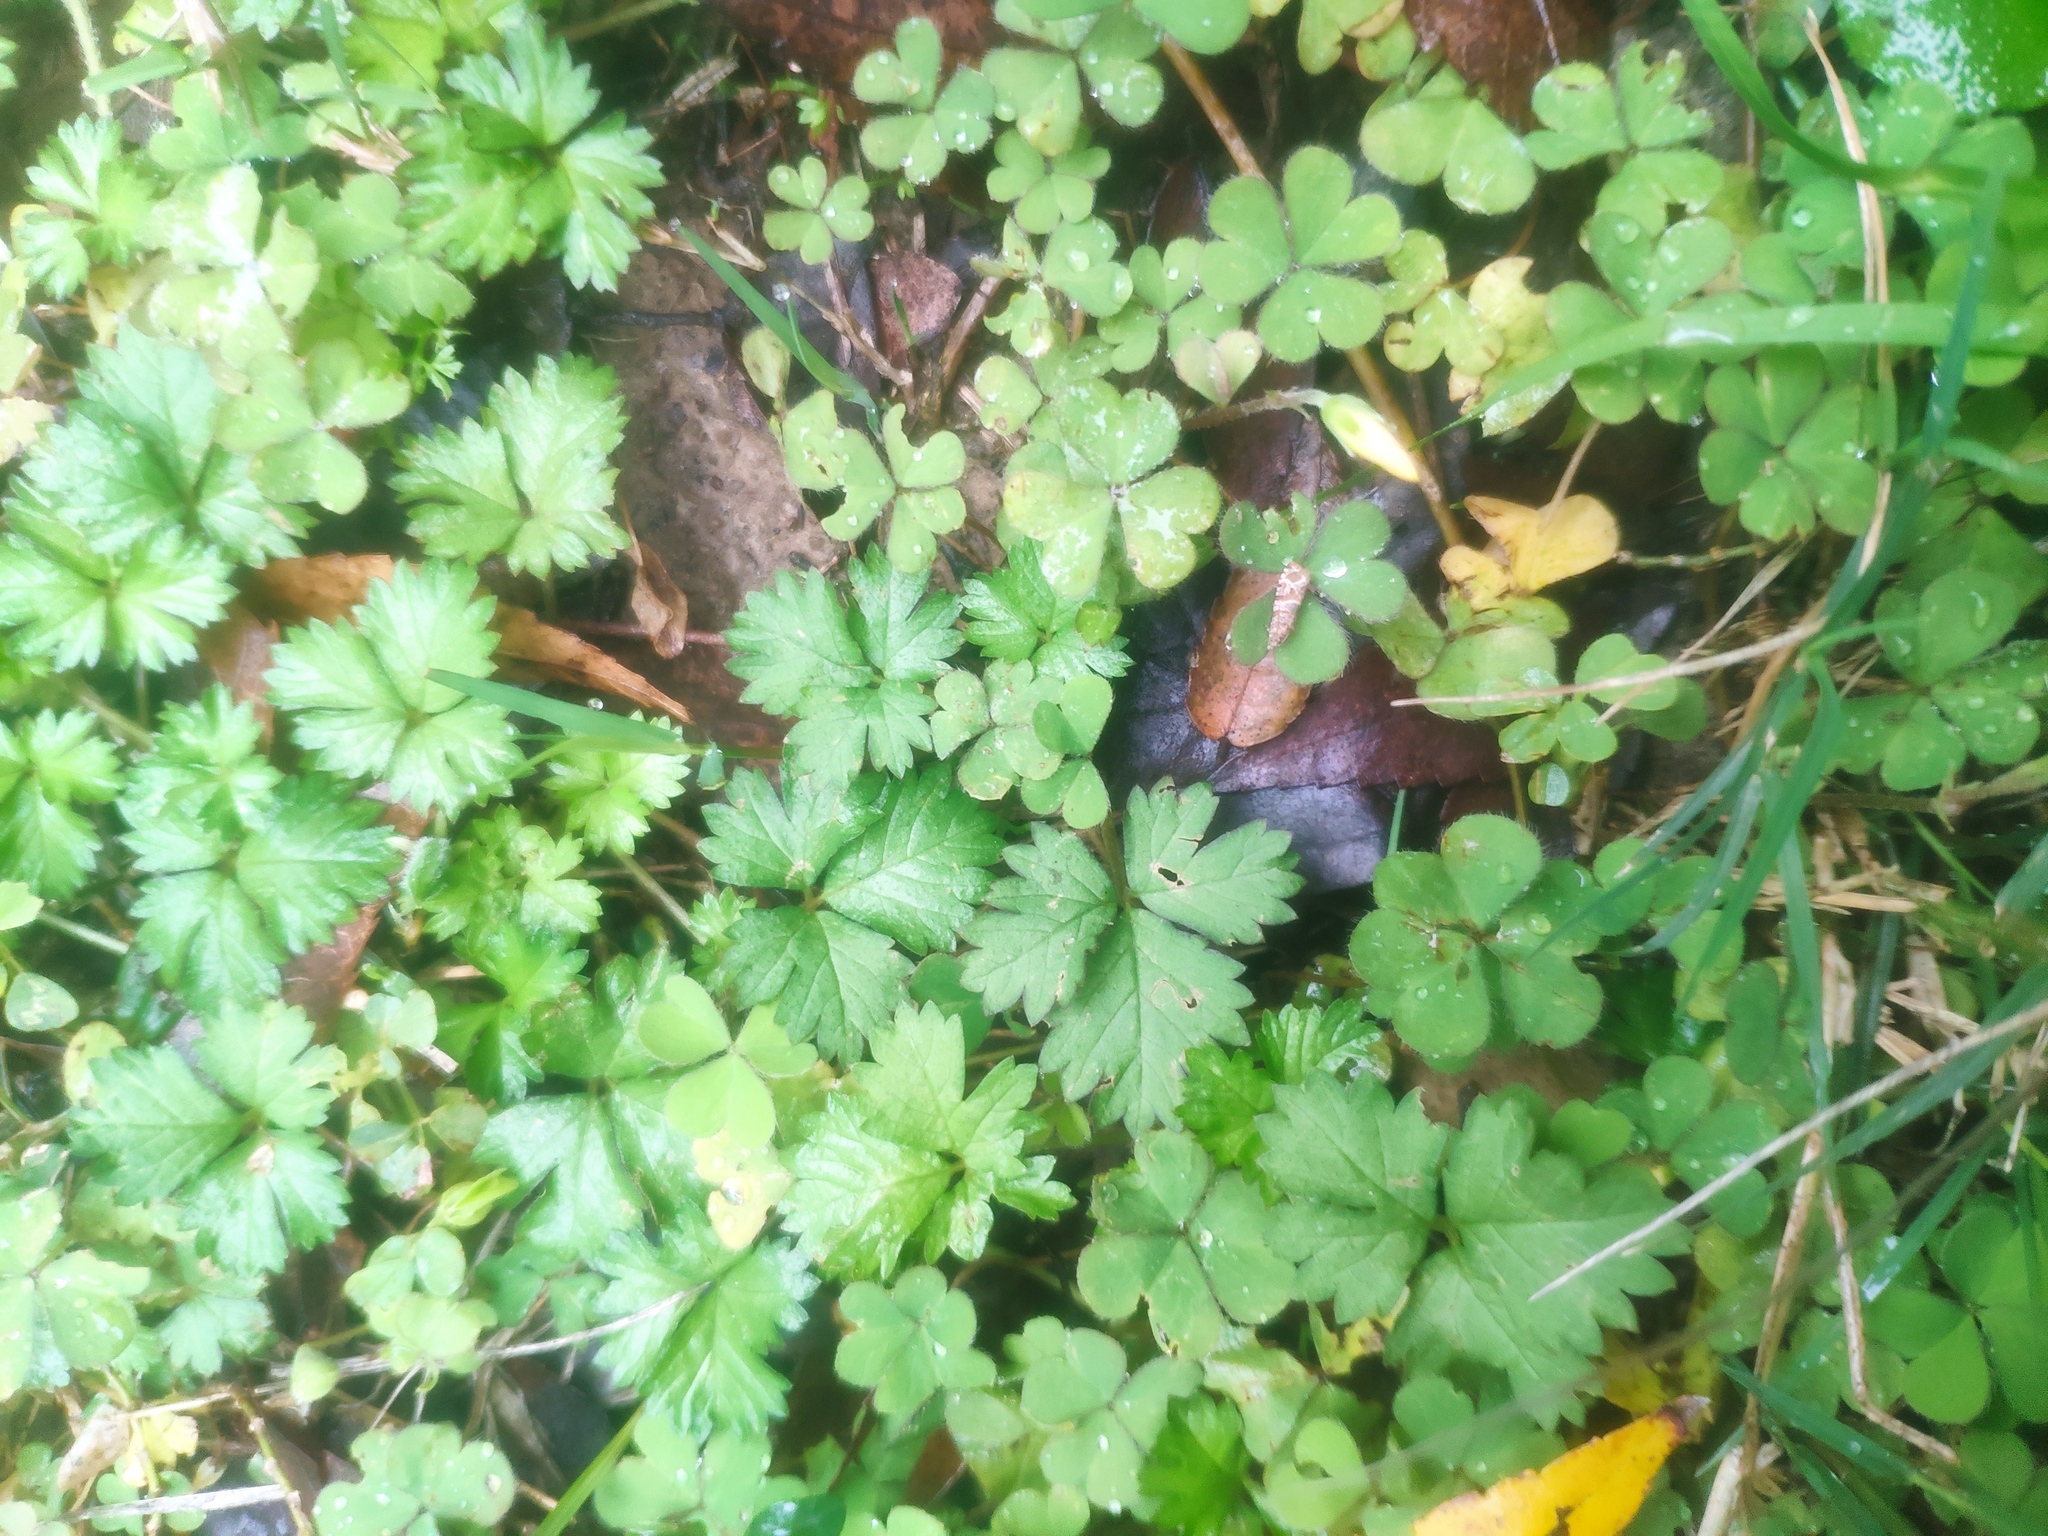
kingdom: Plantae
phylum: Tracheophyta
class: Magnoliopsida
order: Rosales
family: Rosaceae
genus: Potentilla
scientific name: Potentilla wallichiana
